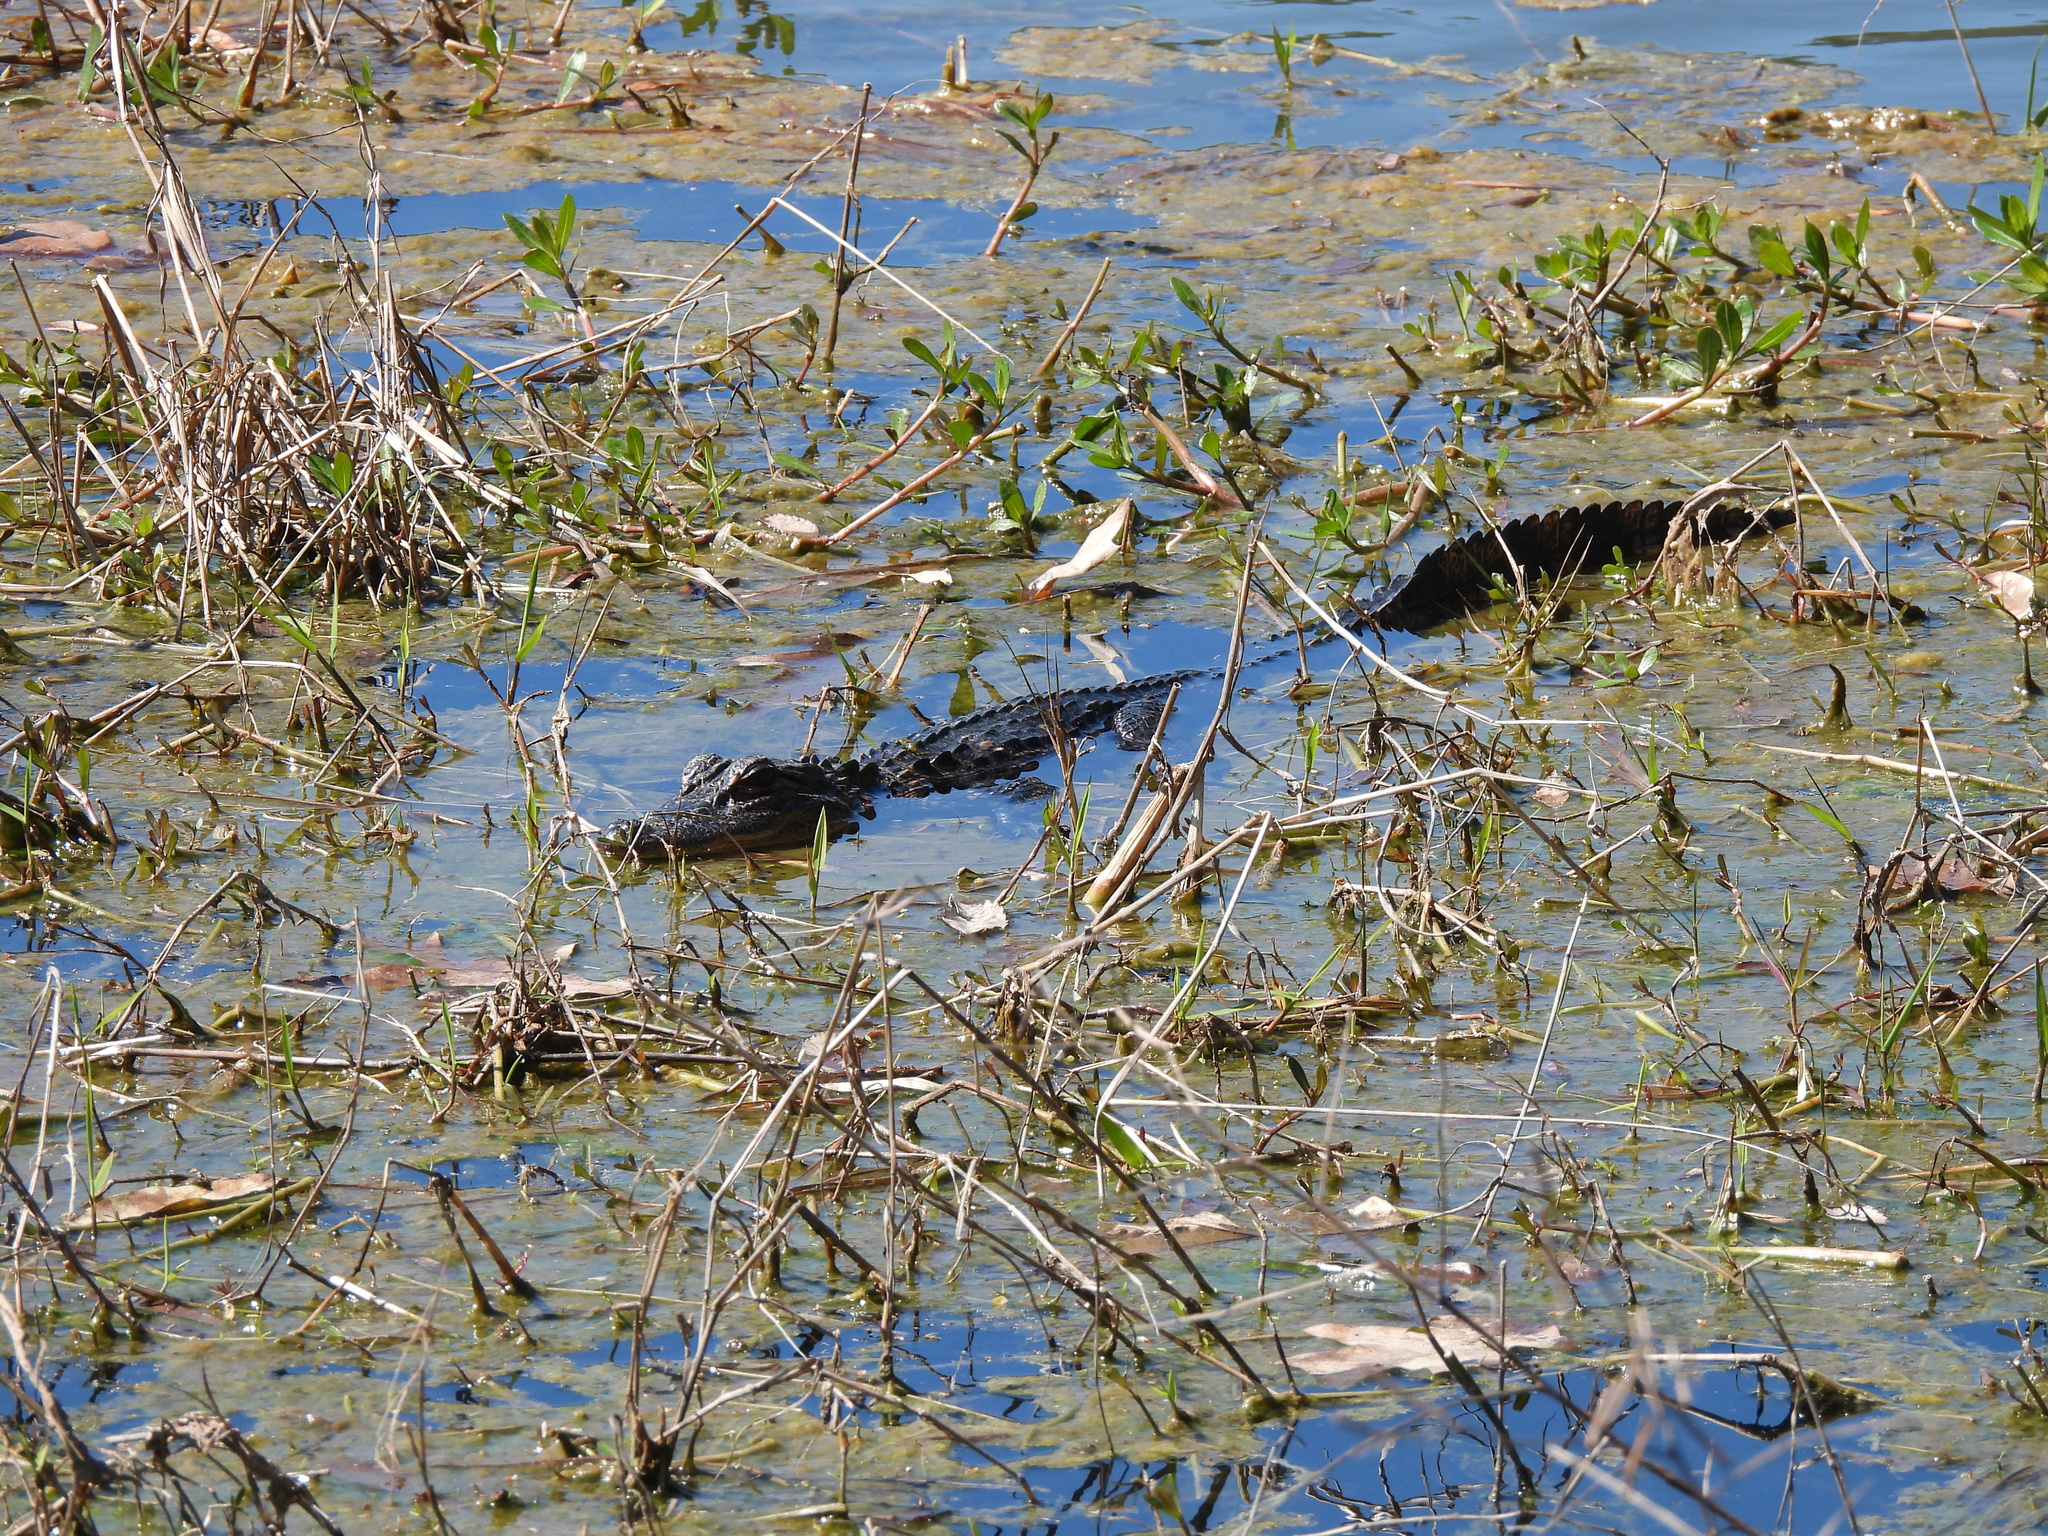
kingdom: Animalia
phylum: Chordata
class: Crocodylia
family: Alligatoridae
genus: Alligator
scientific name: Alligator mississippiensis
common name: American alligator
